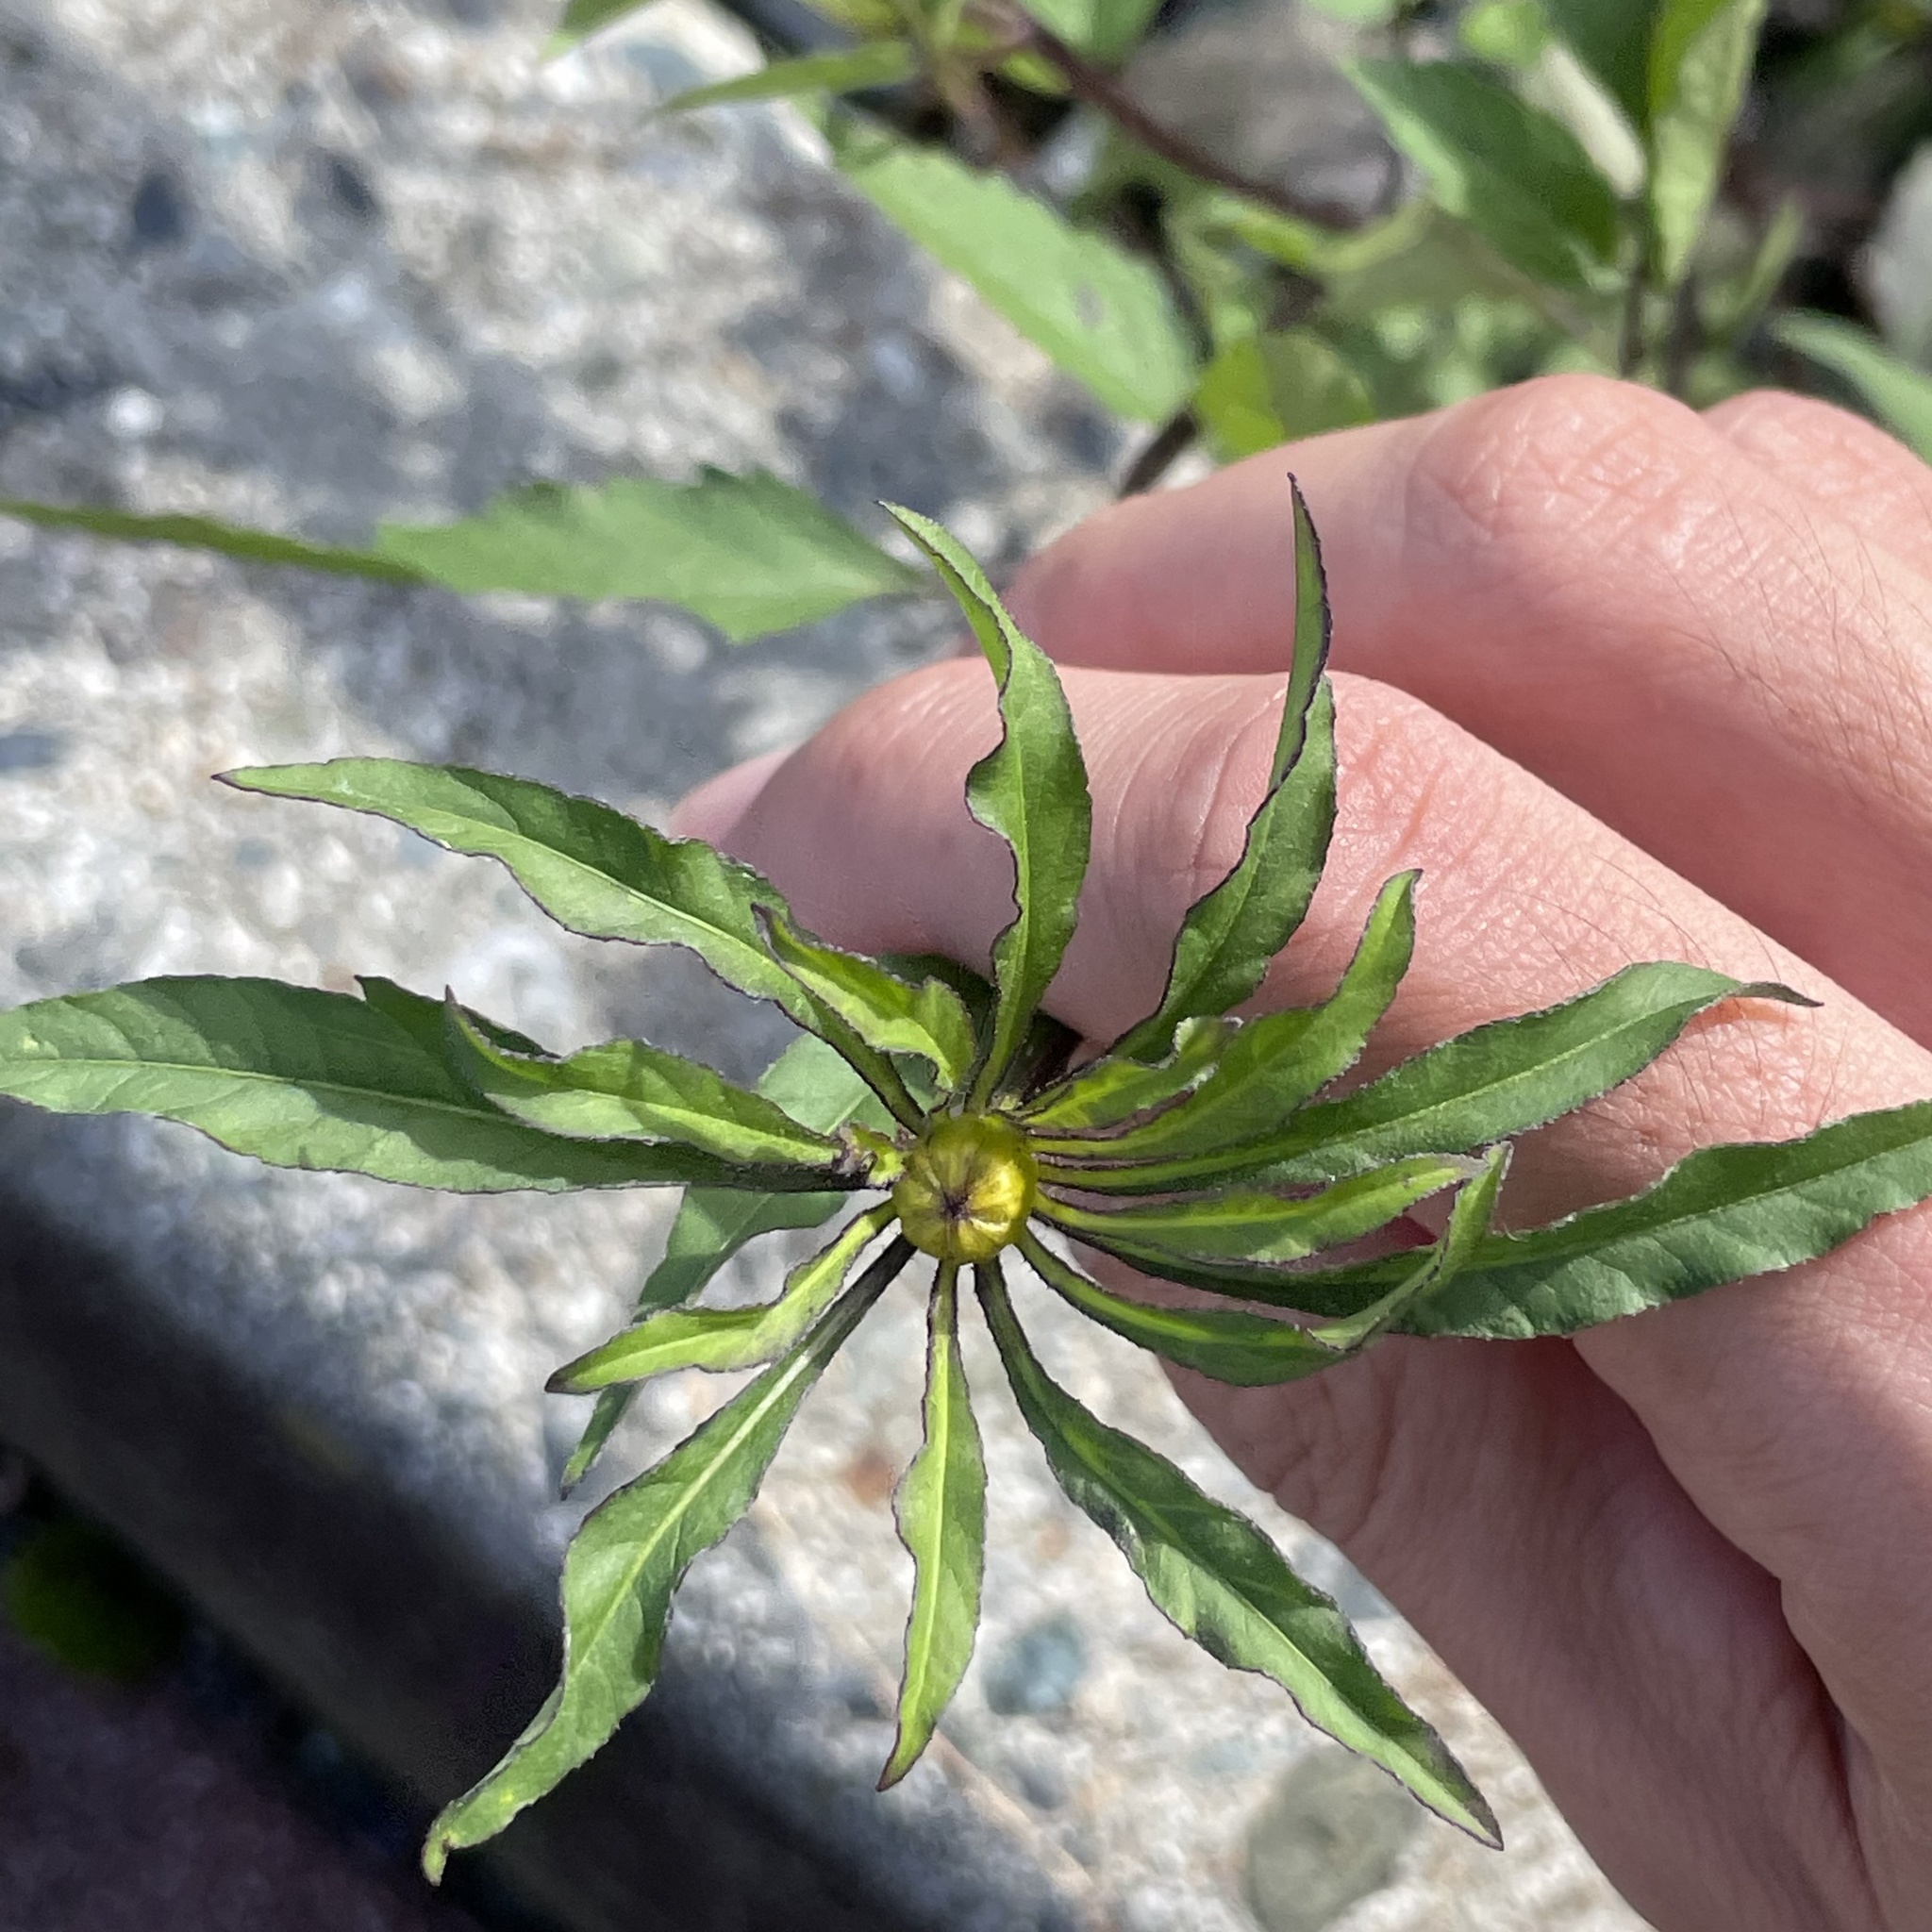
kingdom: Plantae
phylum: Tracheophyta
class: Magnoliopsida
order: Asterales
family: Asteraceae
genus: Bidens
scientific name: Bidens frondosa
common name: Beggarticks
